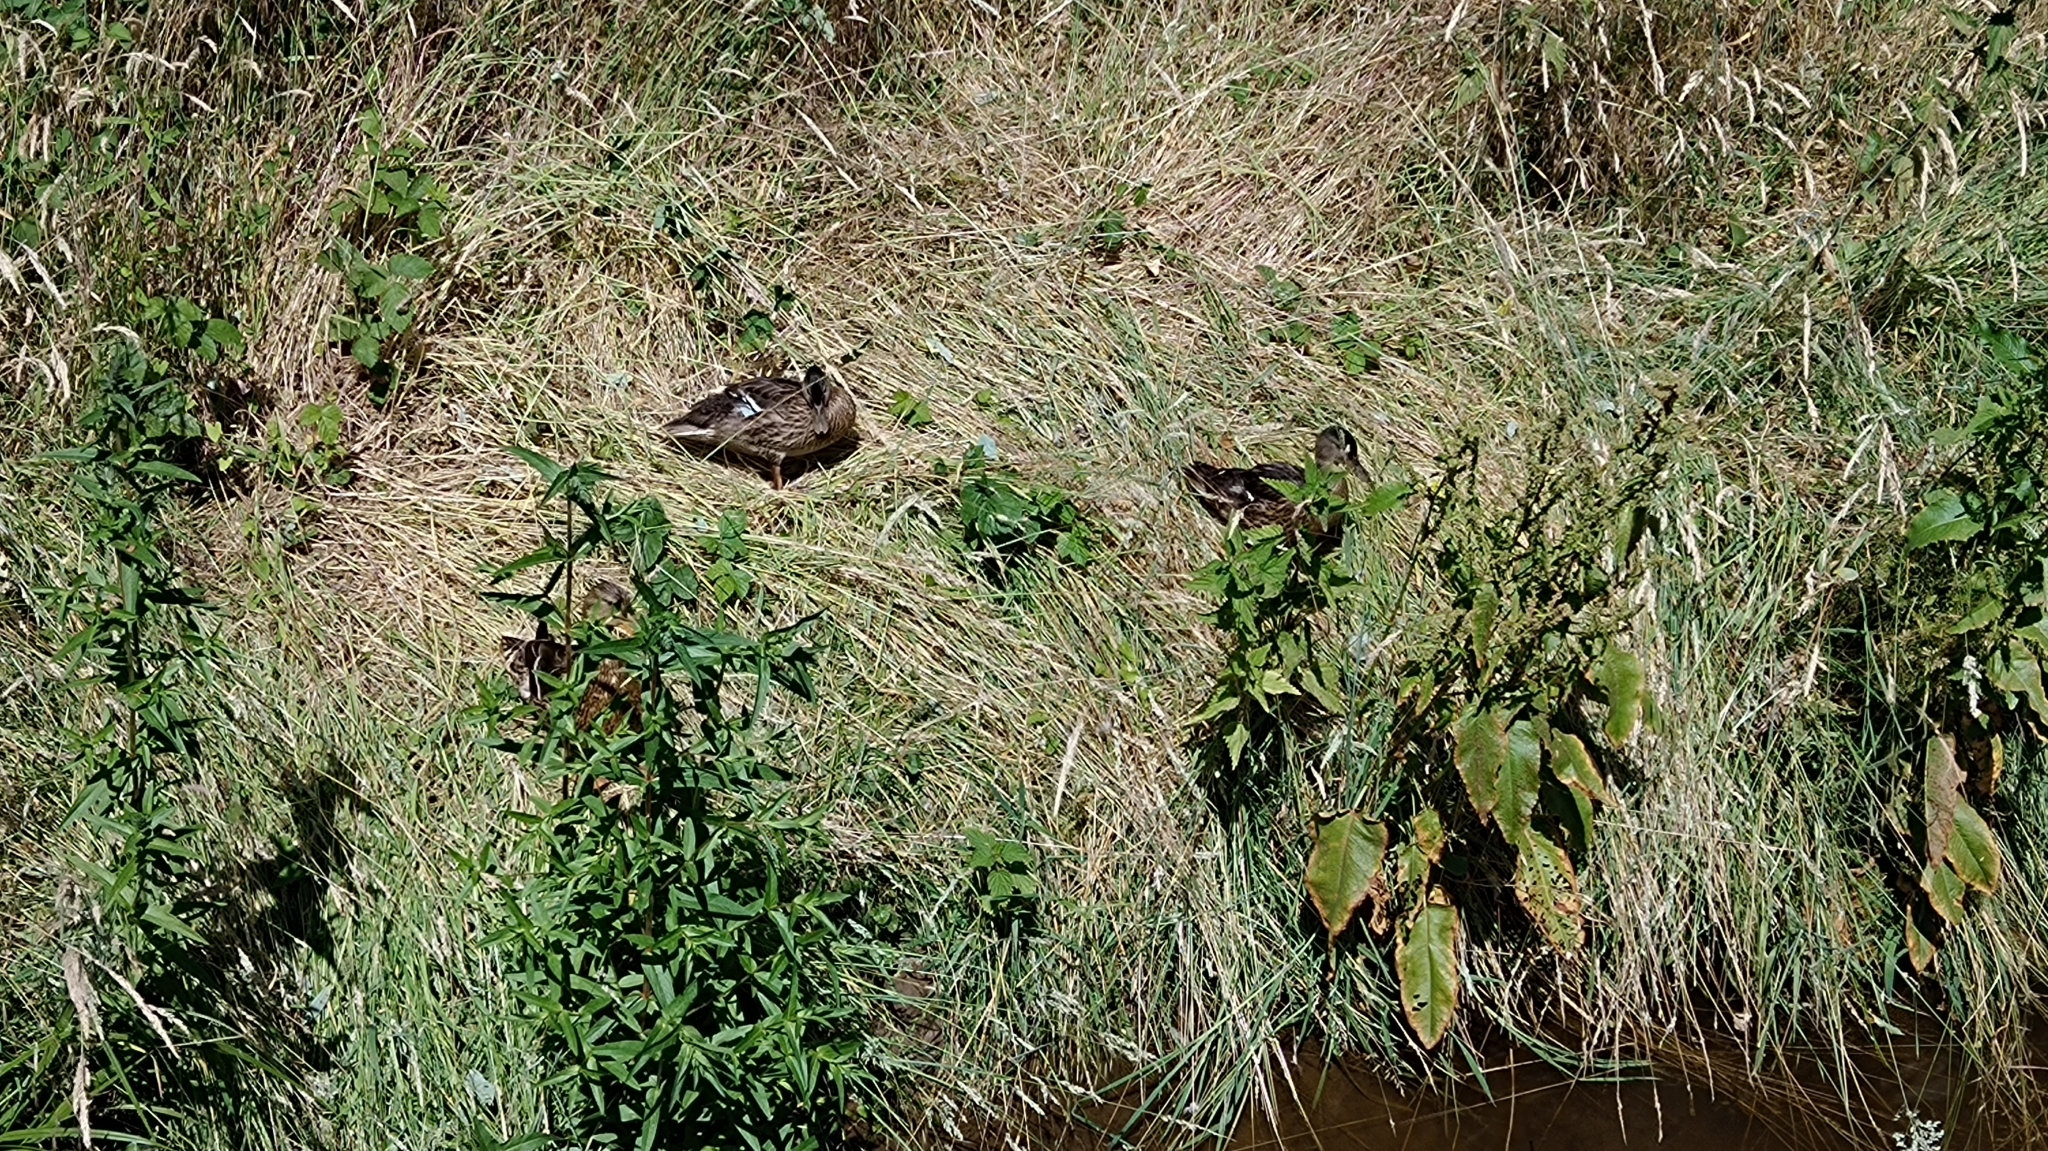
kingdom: Animalia
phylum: Chordata
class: Aves
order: Anseriformes
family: Anatidae
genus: Anas
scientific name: Anas platyrhynchos
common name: Mallard
